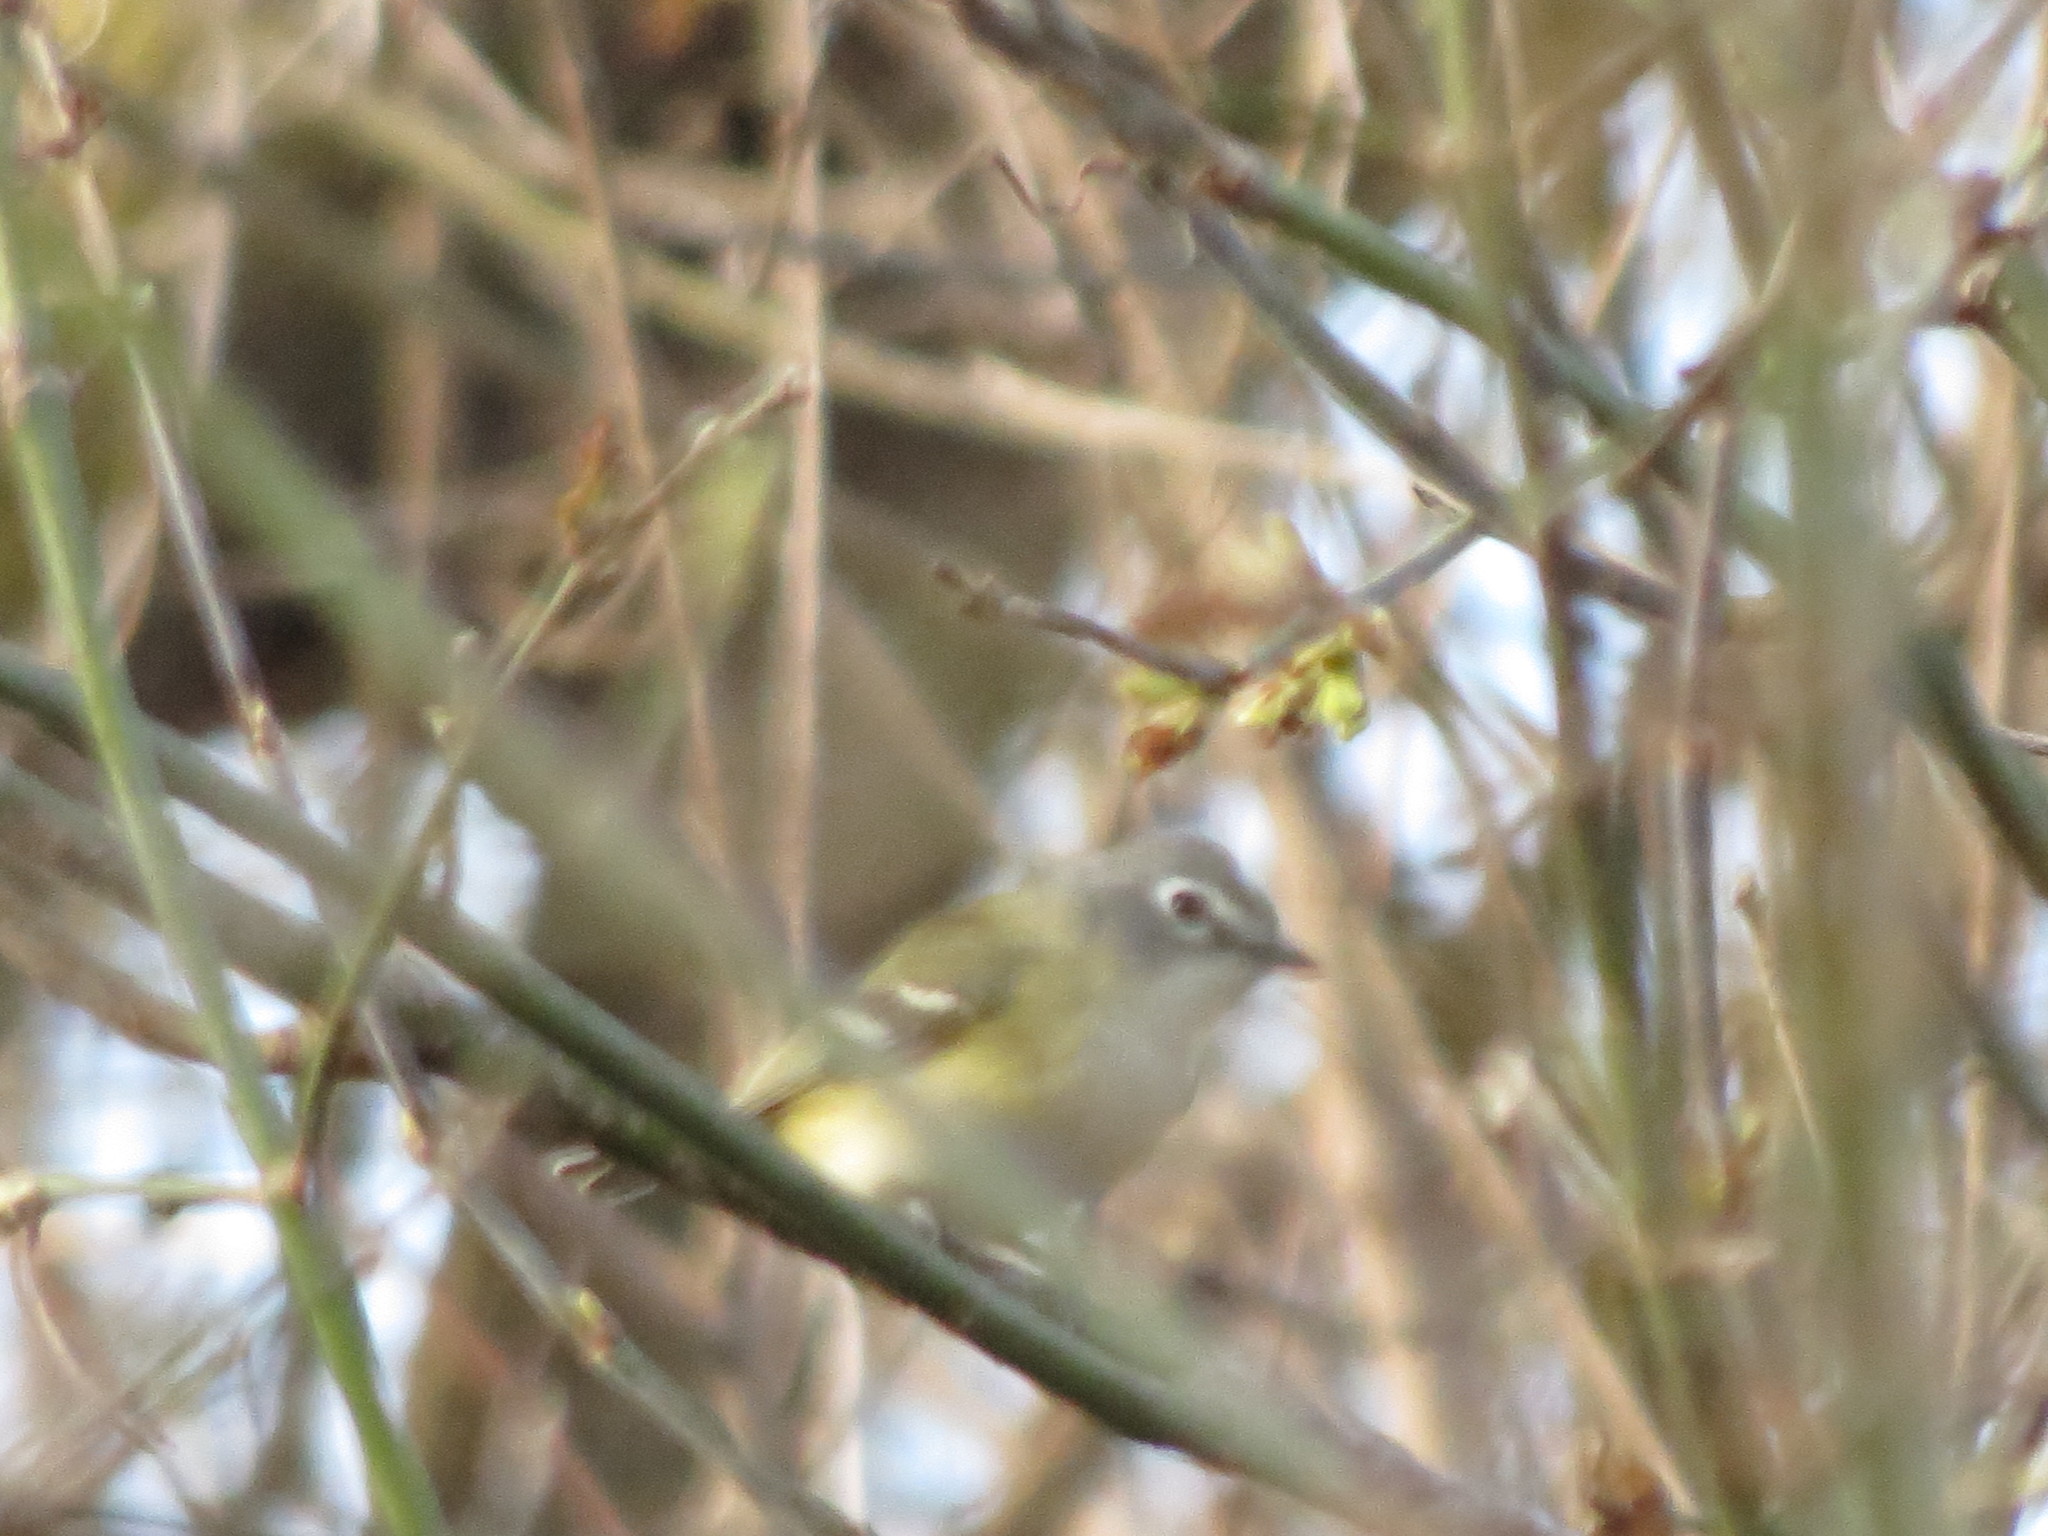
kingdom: Animalia
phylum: Chordata
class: Aves
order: Passeriformes
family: Vireonidae
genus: Vireo
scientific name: Vireo solitarius
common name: Blue-headed vireo
